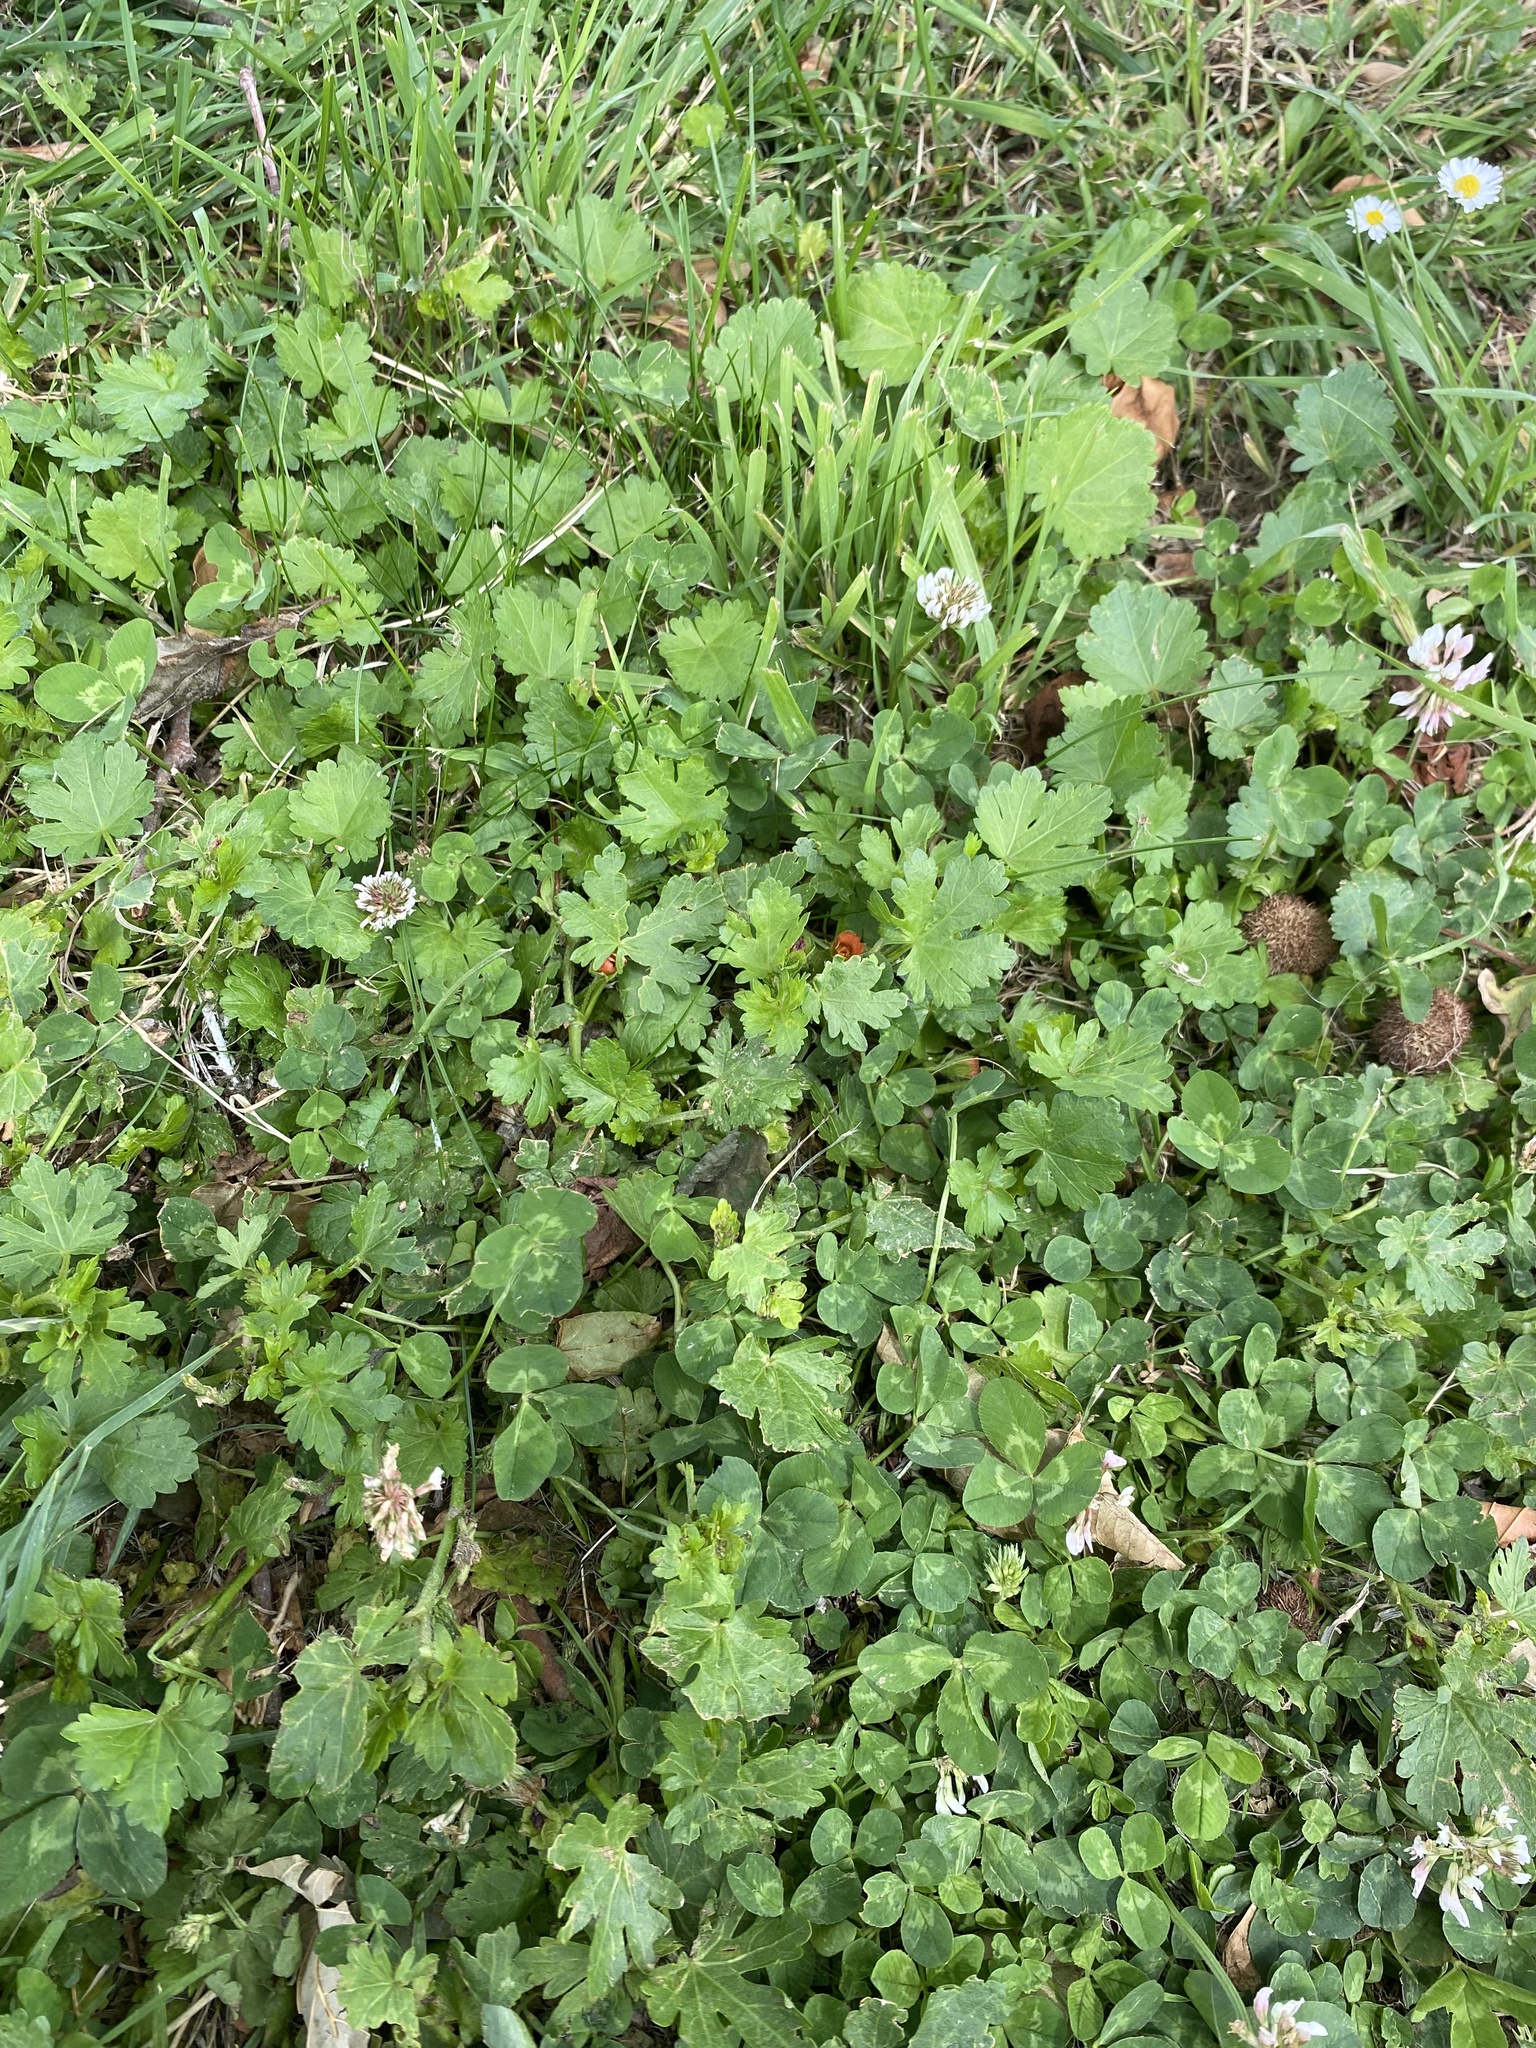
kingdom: Plantae
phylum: Tracheophyta
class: Magnoliopsida
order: Malvales
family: Malvaceae
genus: Modiola
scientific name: Modiola caroliniana
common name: Carolina bristlemallow
